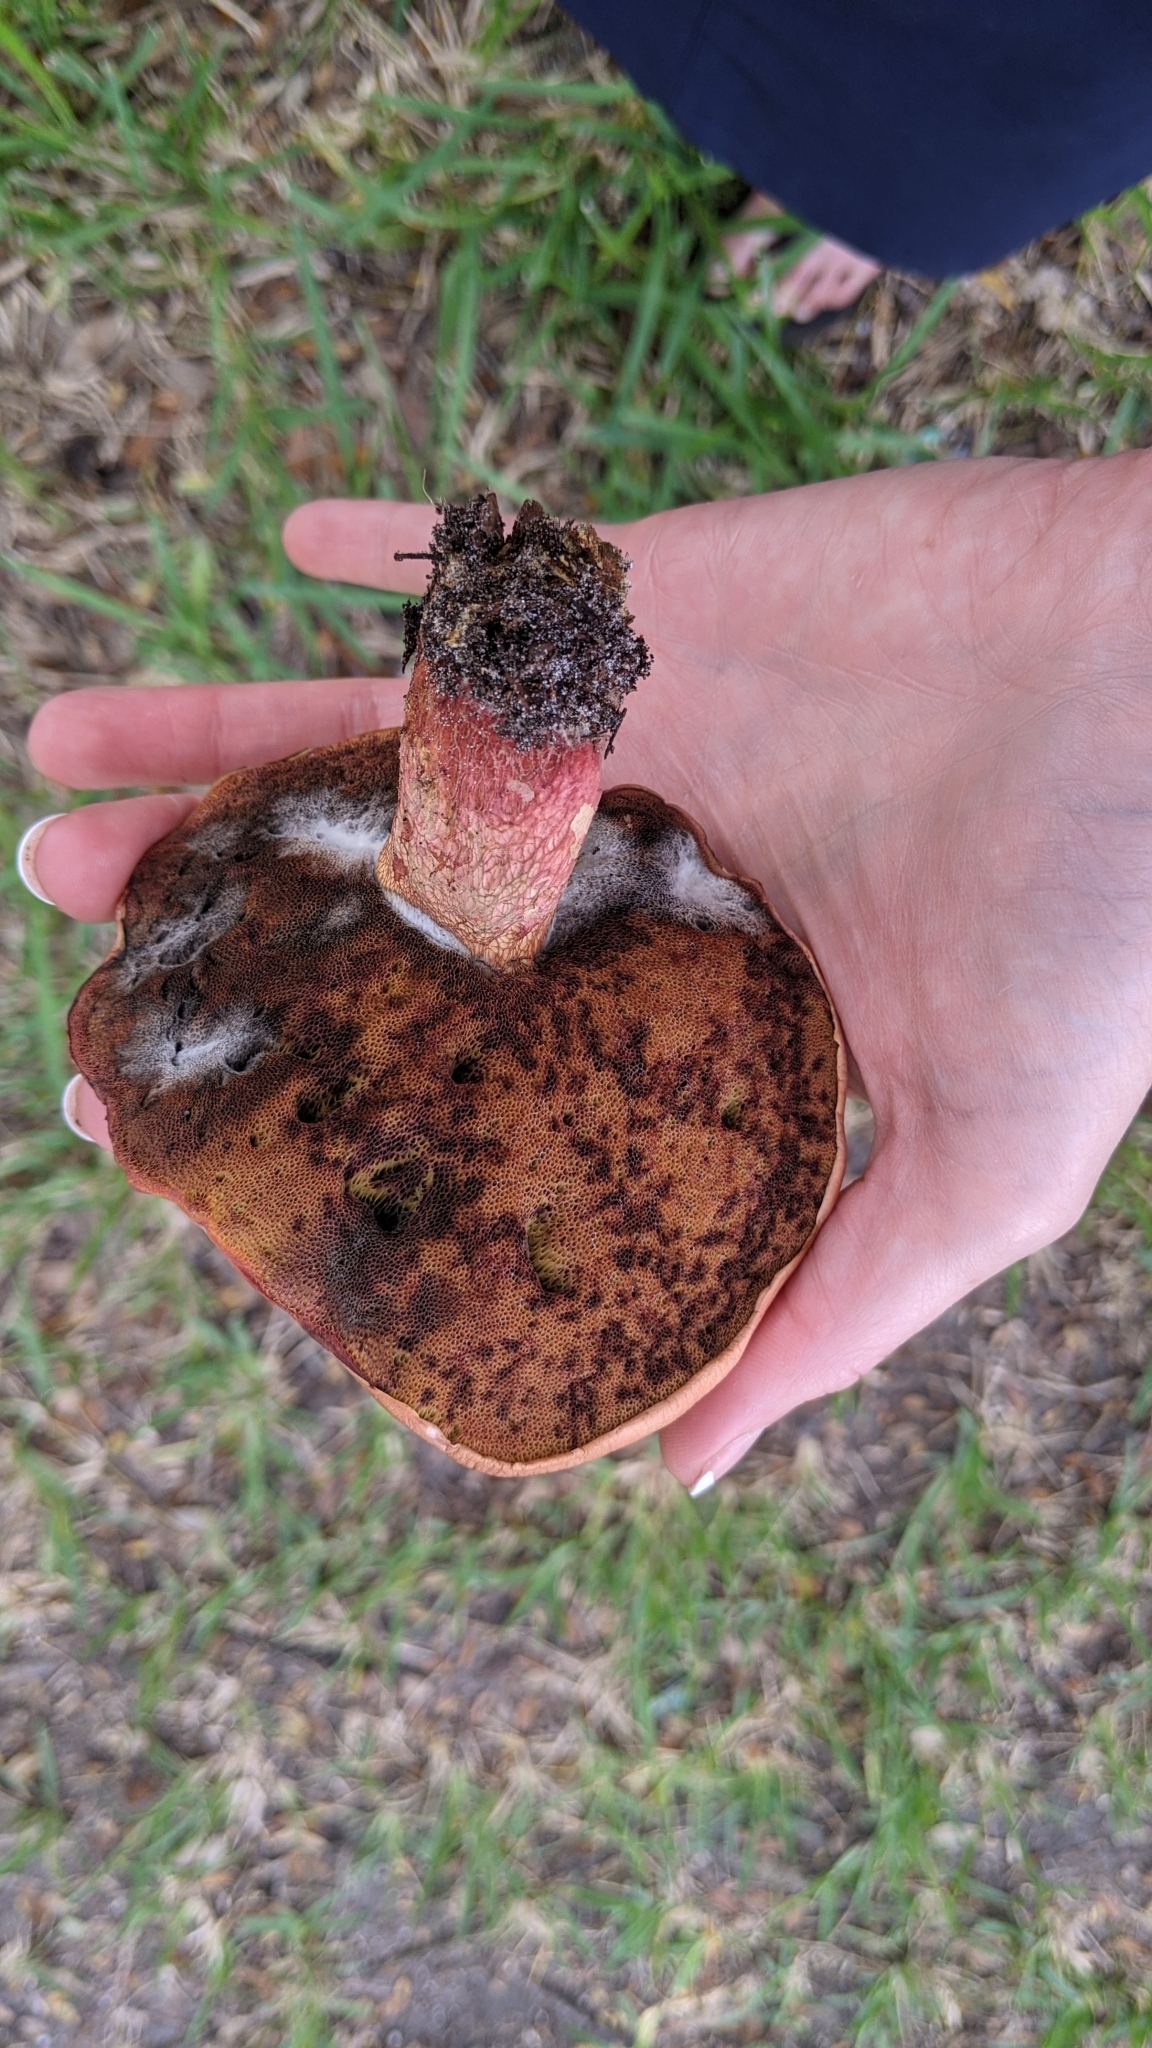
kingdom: Fungi
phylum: Basidiomycota
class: Agaricomycetes
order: Boletales
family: Boletaceae
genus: Butyriboletus
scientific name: Butyriboletus floridanus
